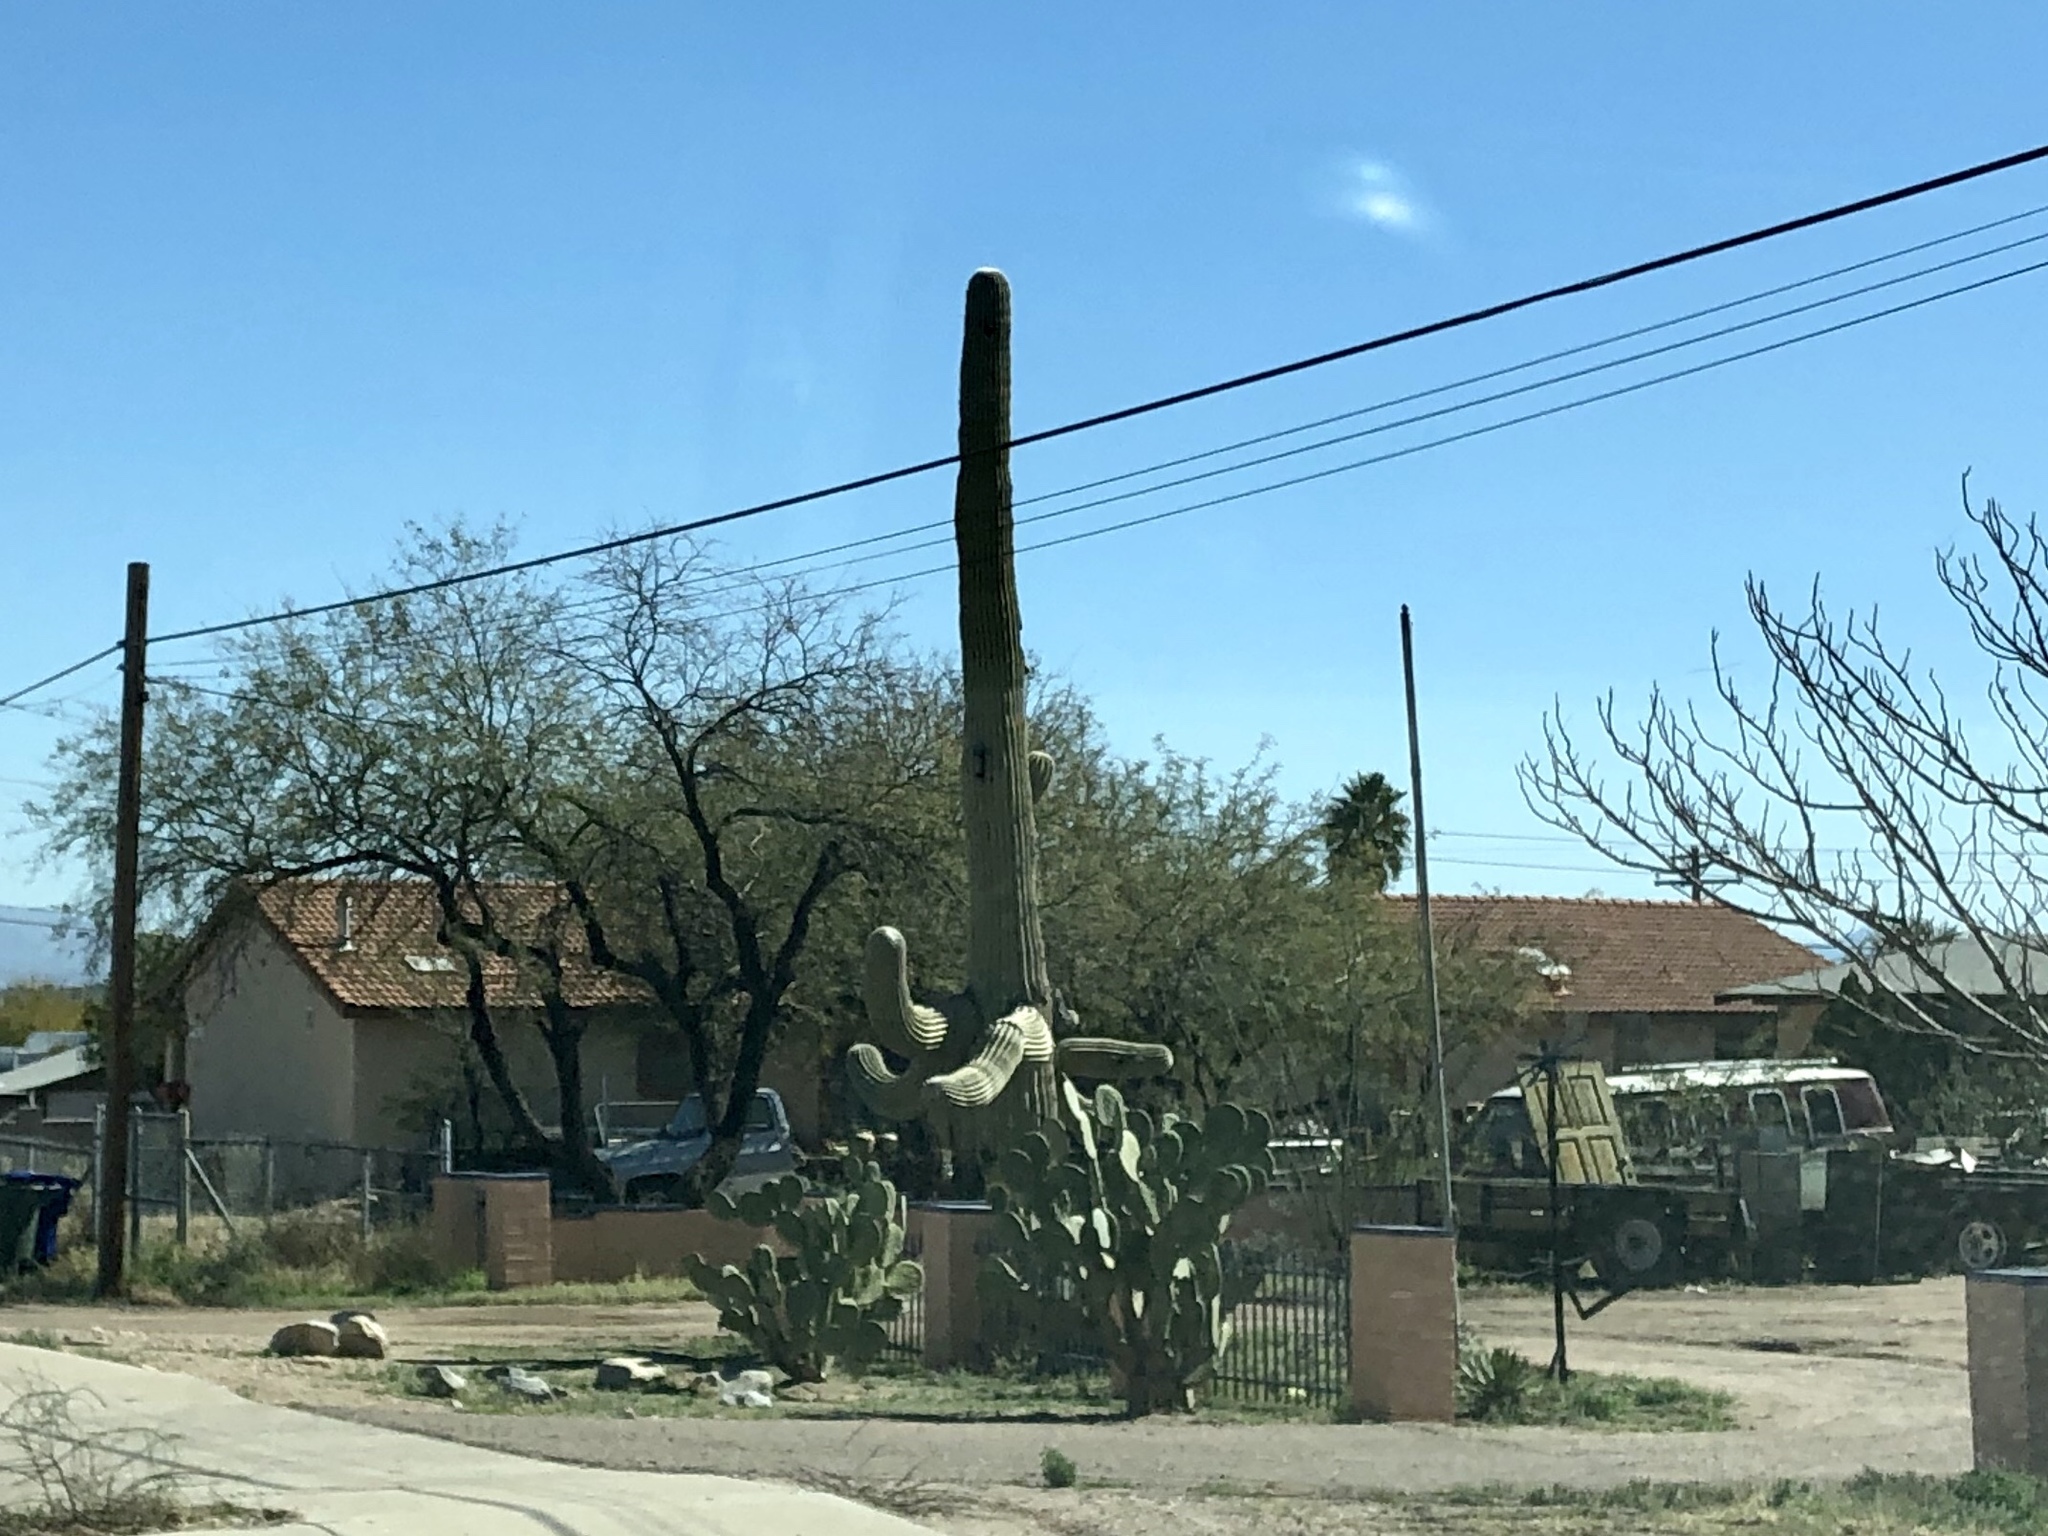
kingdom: Plantae
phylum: Tracheophyta
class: Magnoliopsida
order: Caryophyllales
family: Cactaceae
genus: Carnegiea
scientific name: Carnegiea gigantea
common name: Saguaro
